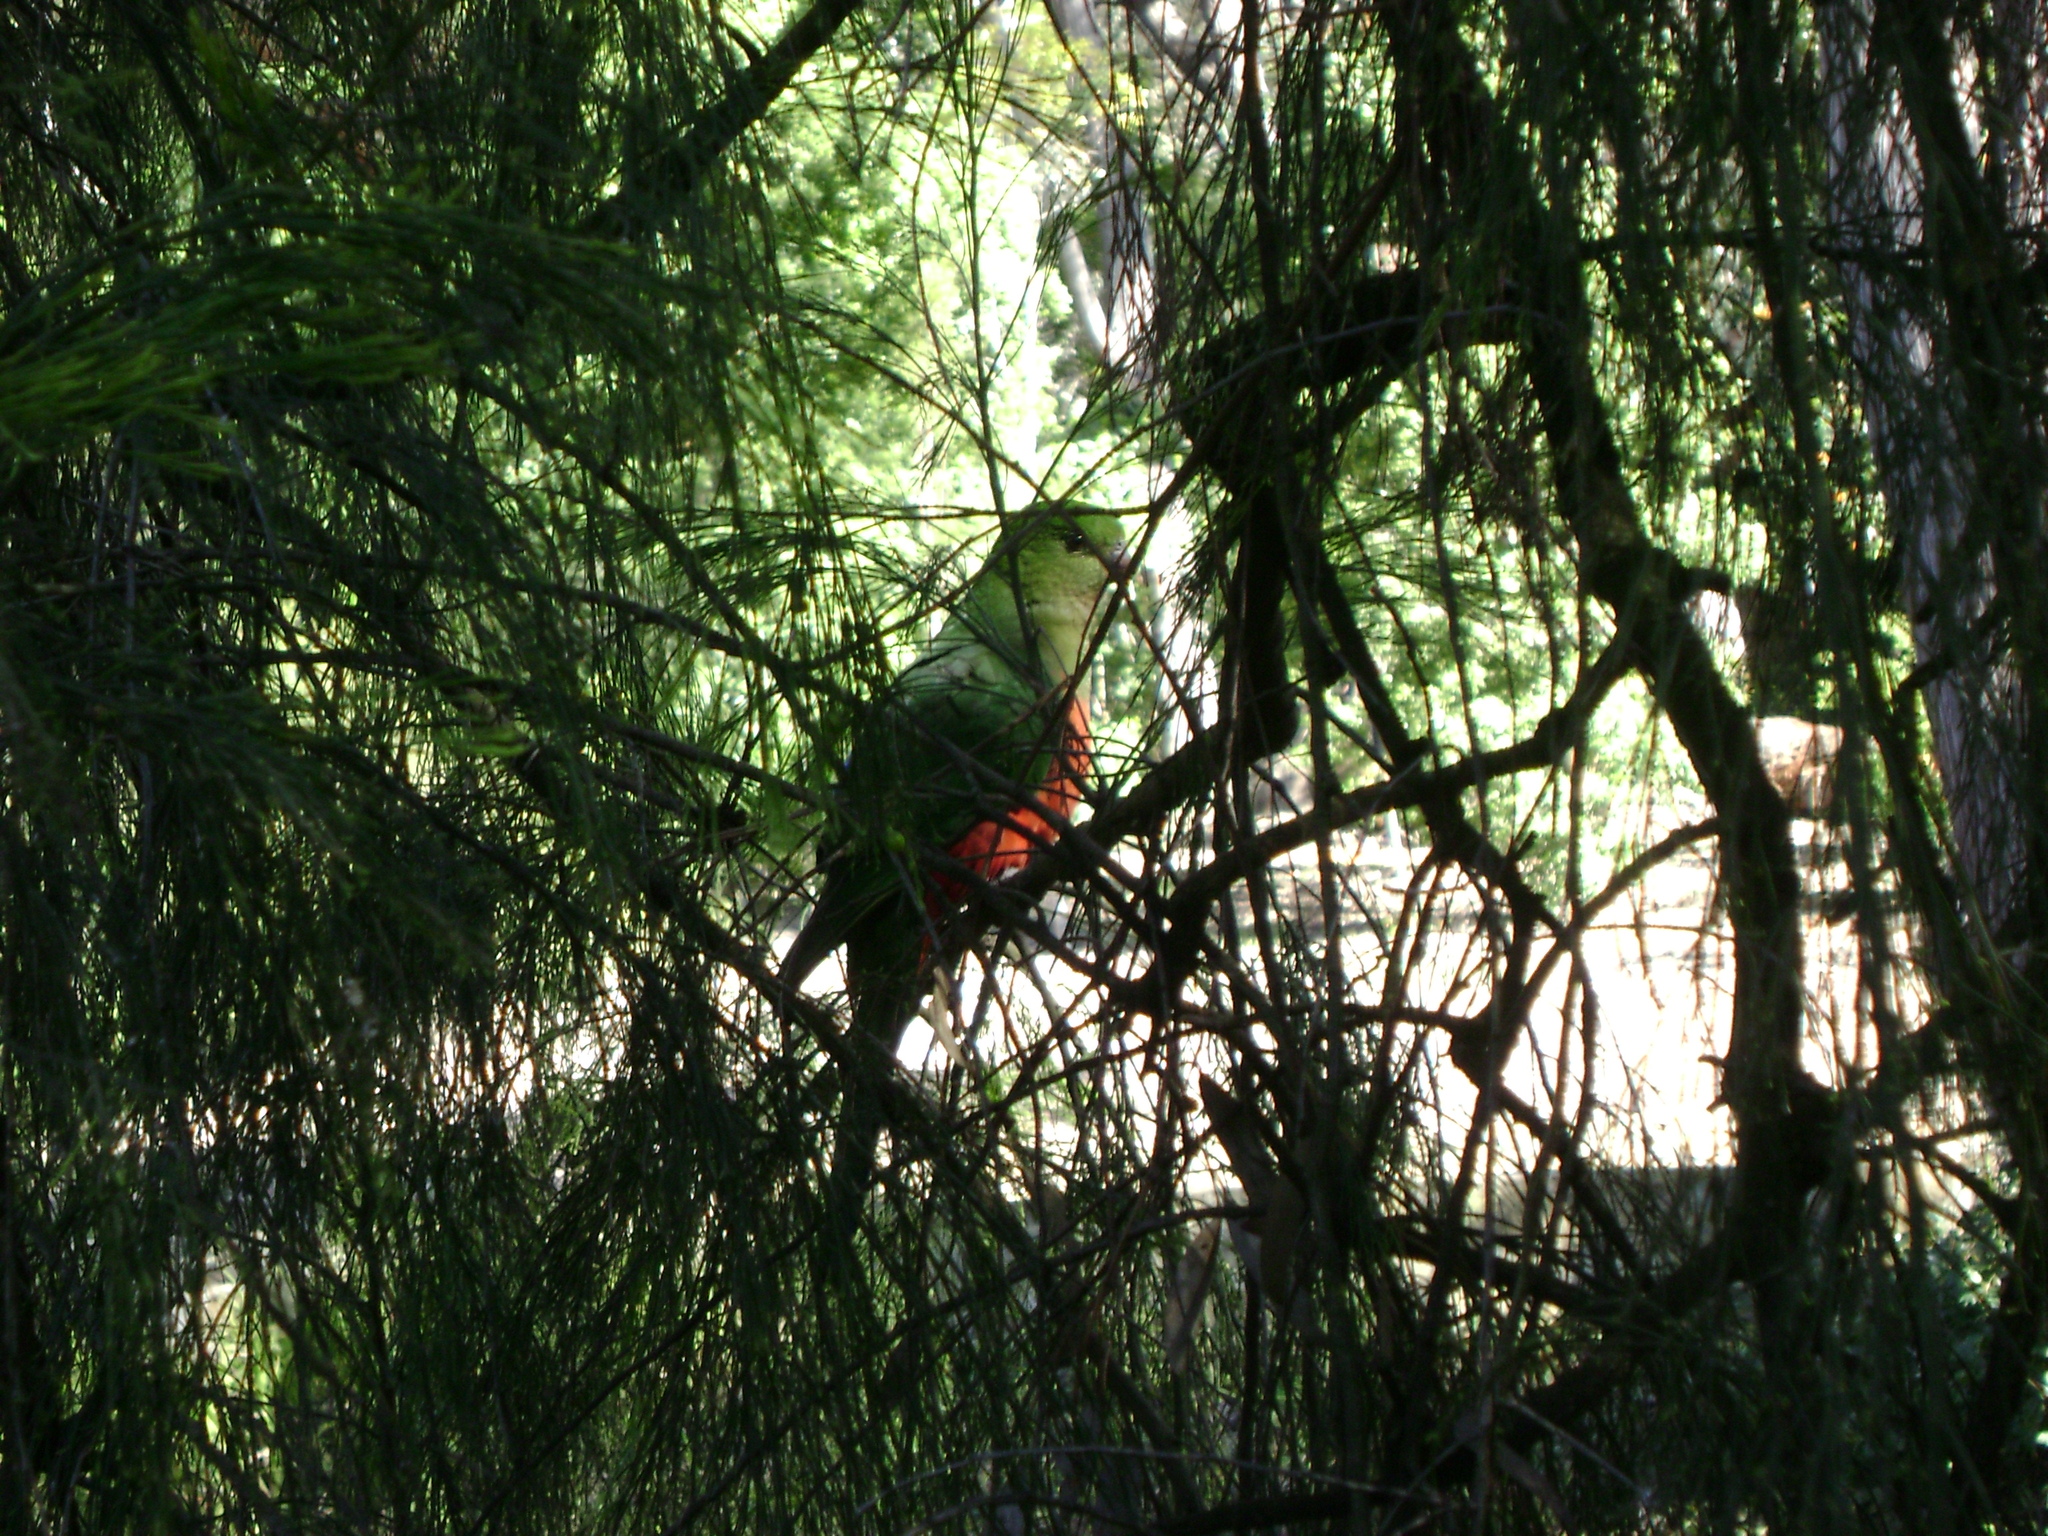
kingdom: Animalia
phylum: Chordata
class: Aves
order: Psittaciformes
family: Psittacidae
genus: Alisterus
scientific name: Alisterus scapularis
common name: Australian king parrot
